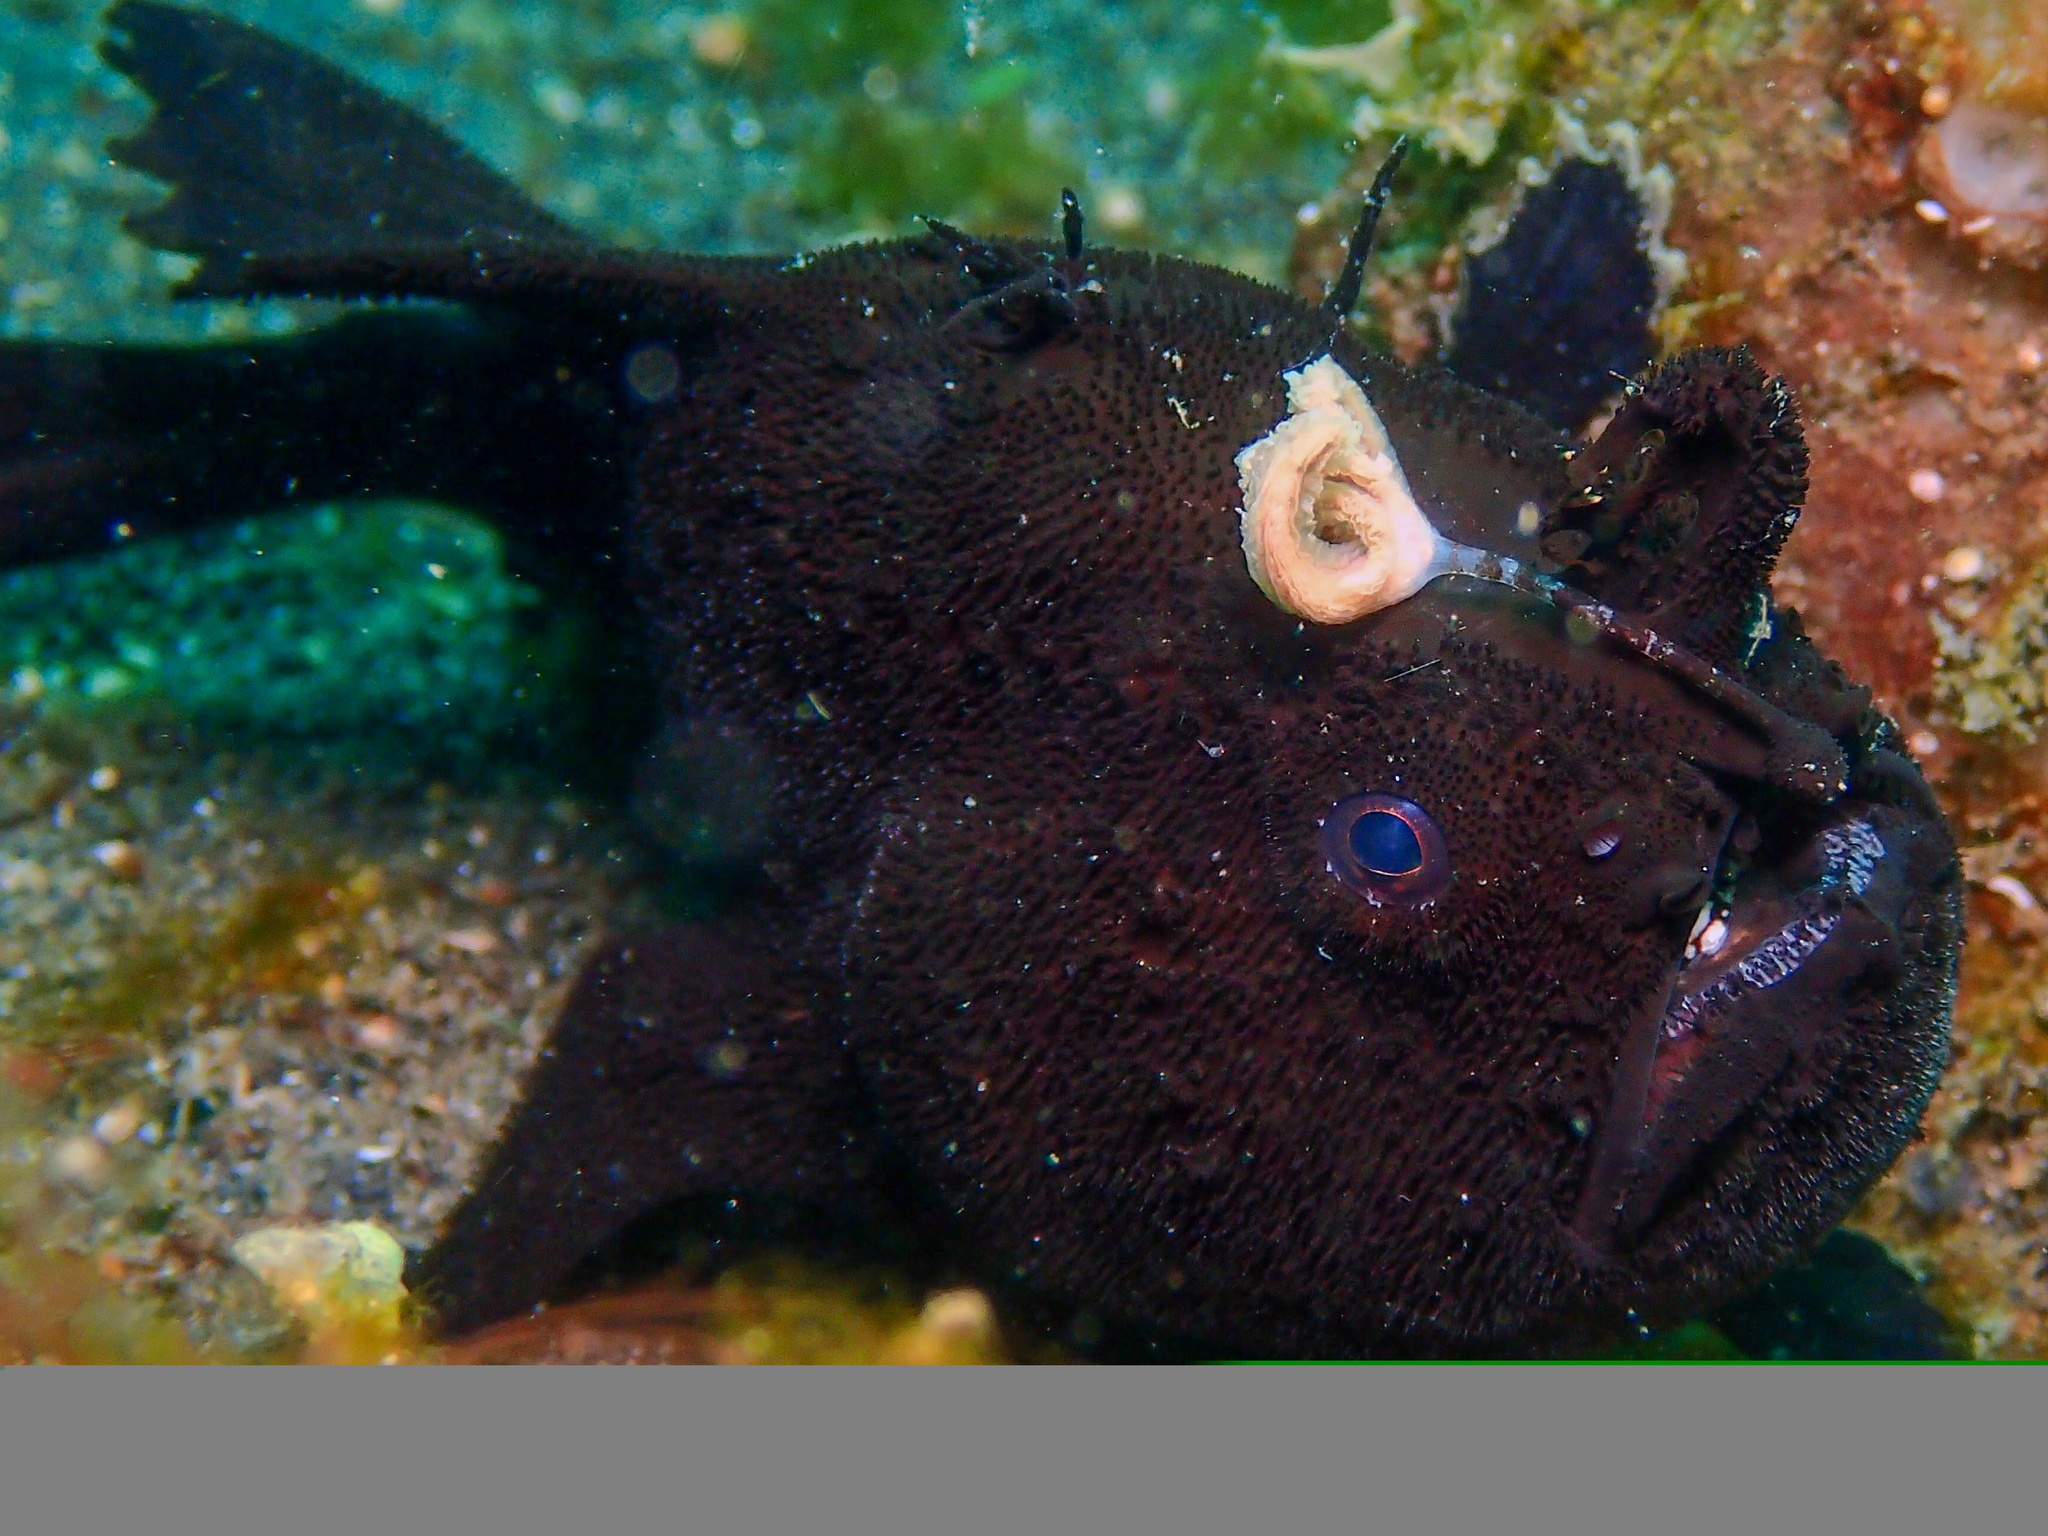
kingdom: Animalia
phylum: Chordata
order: Lophiiformes
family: Antennariidae
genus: Antennarius
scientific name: Antennarius striatus
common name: Striated frogfish
